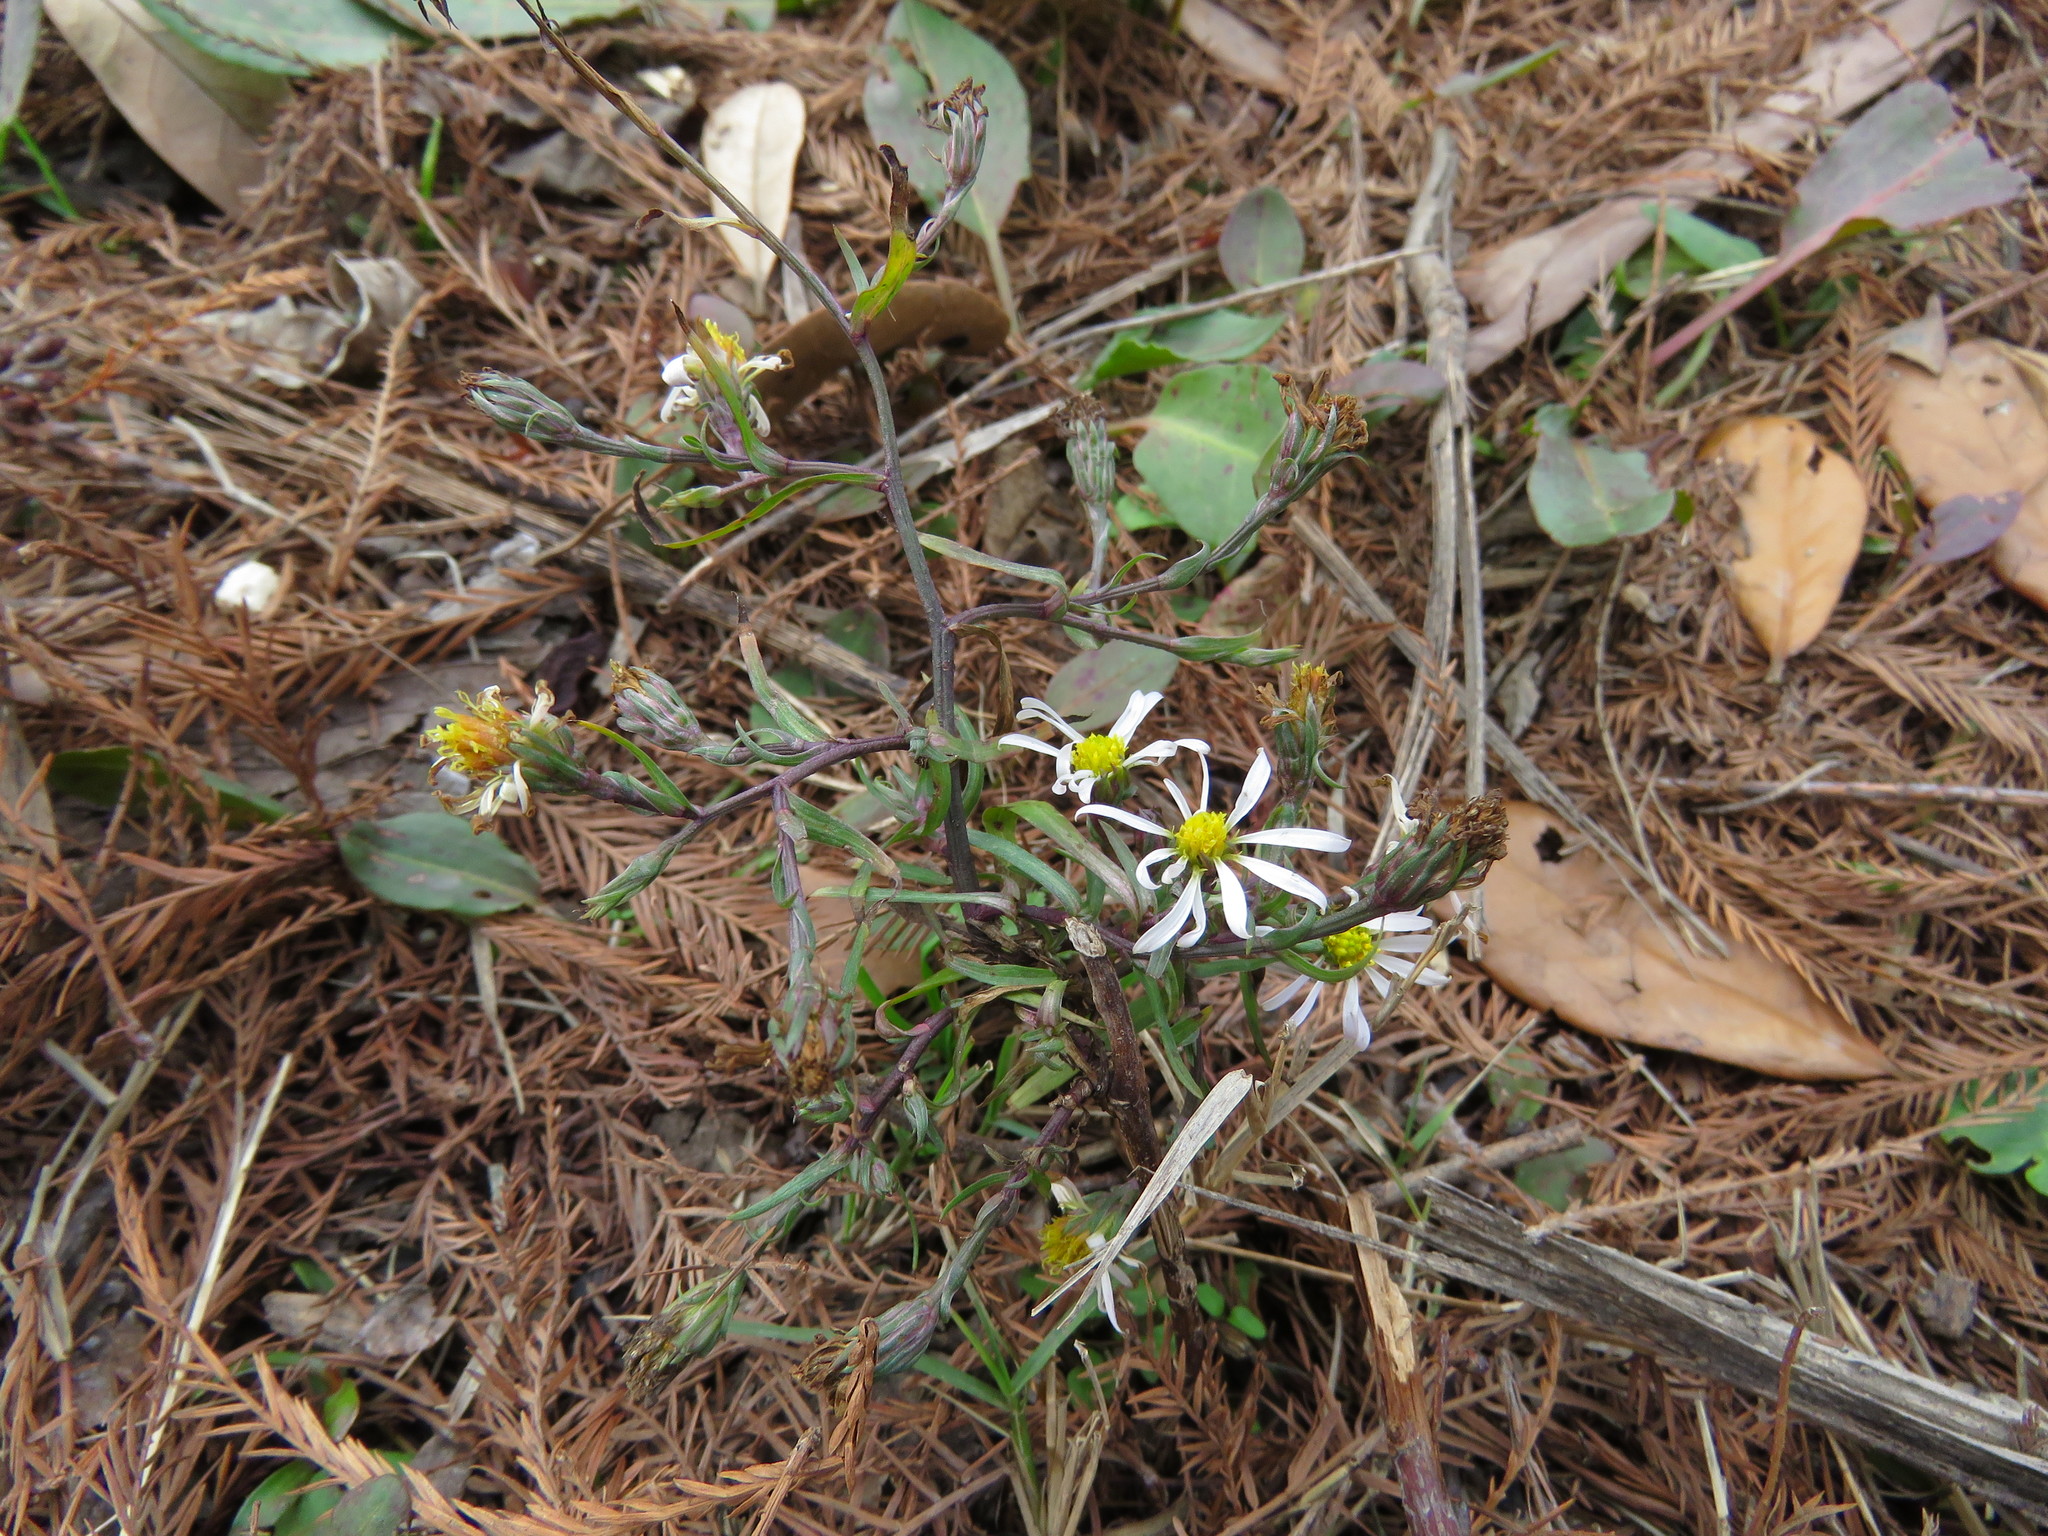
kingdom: Plantae
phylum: Tracheophyta
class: Magnoliopsida
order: Asterales
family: Asteraceae
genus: Symphyotrichum
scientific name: Symphyotrichum divaricatum
